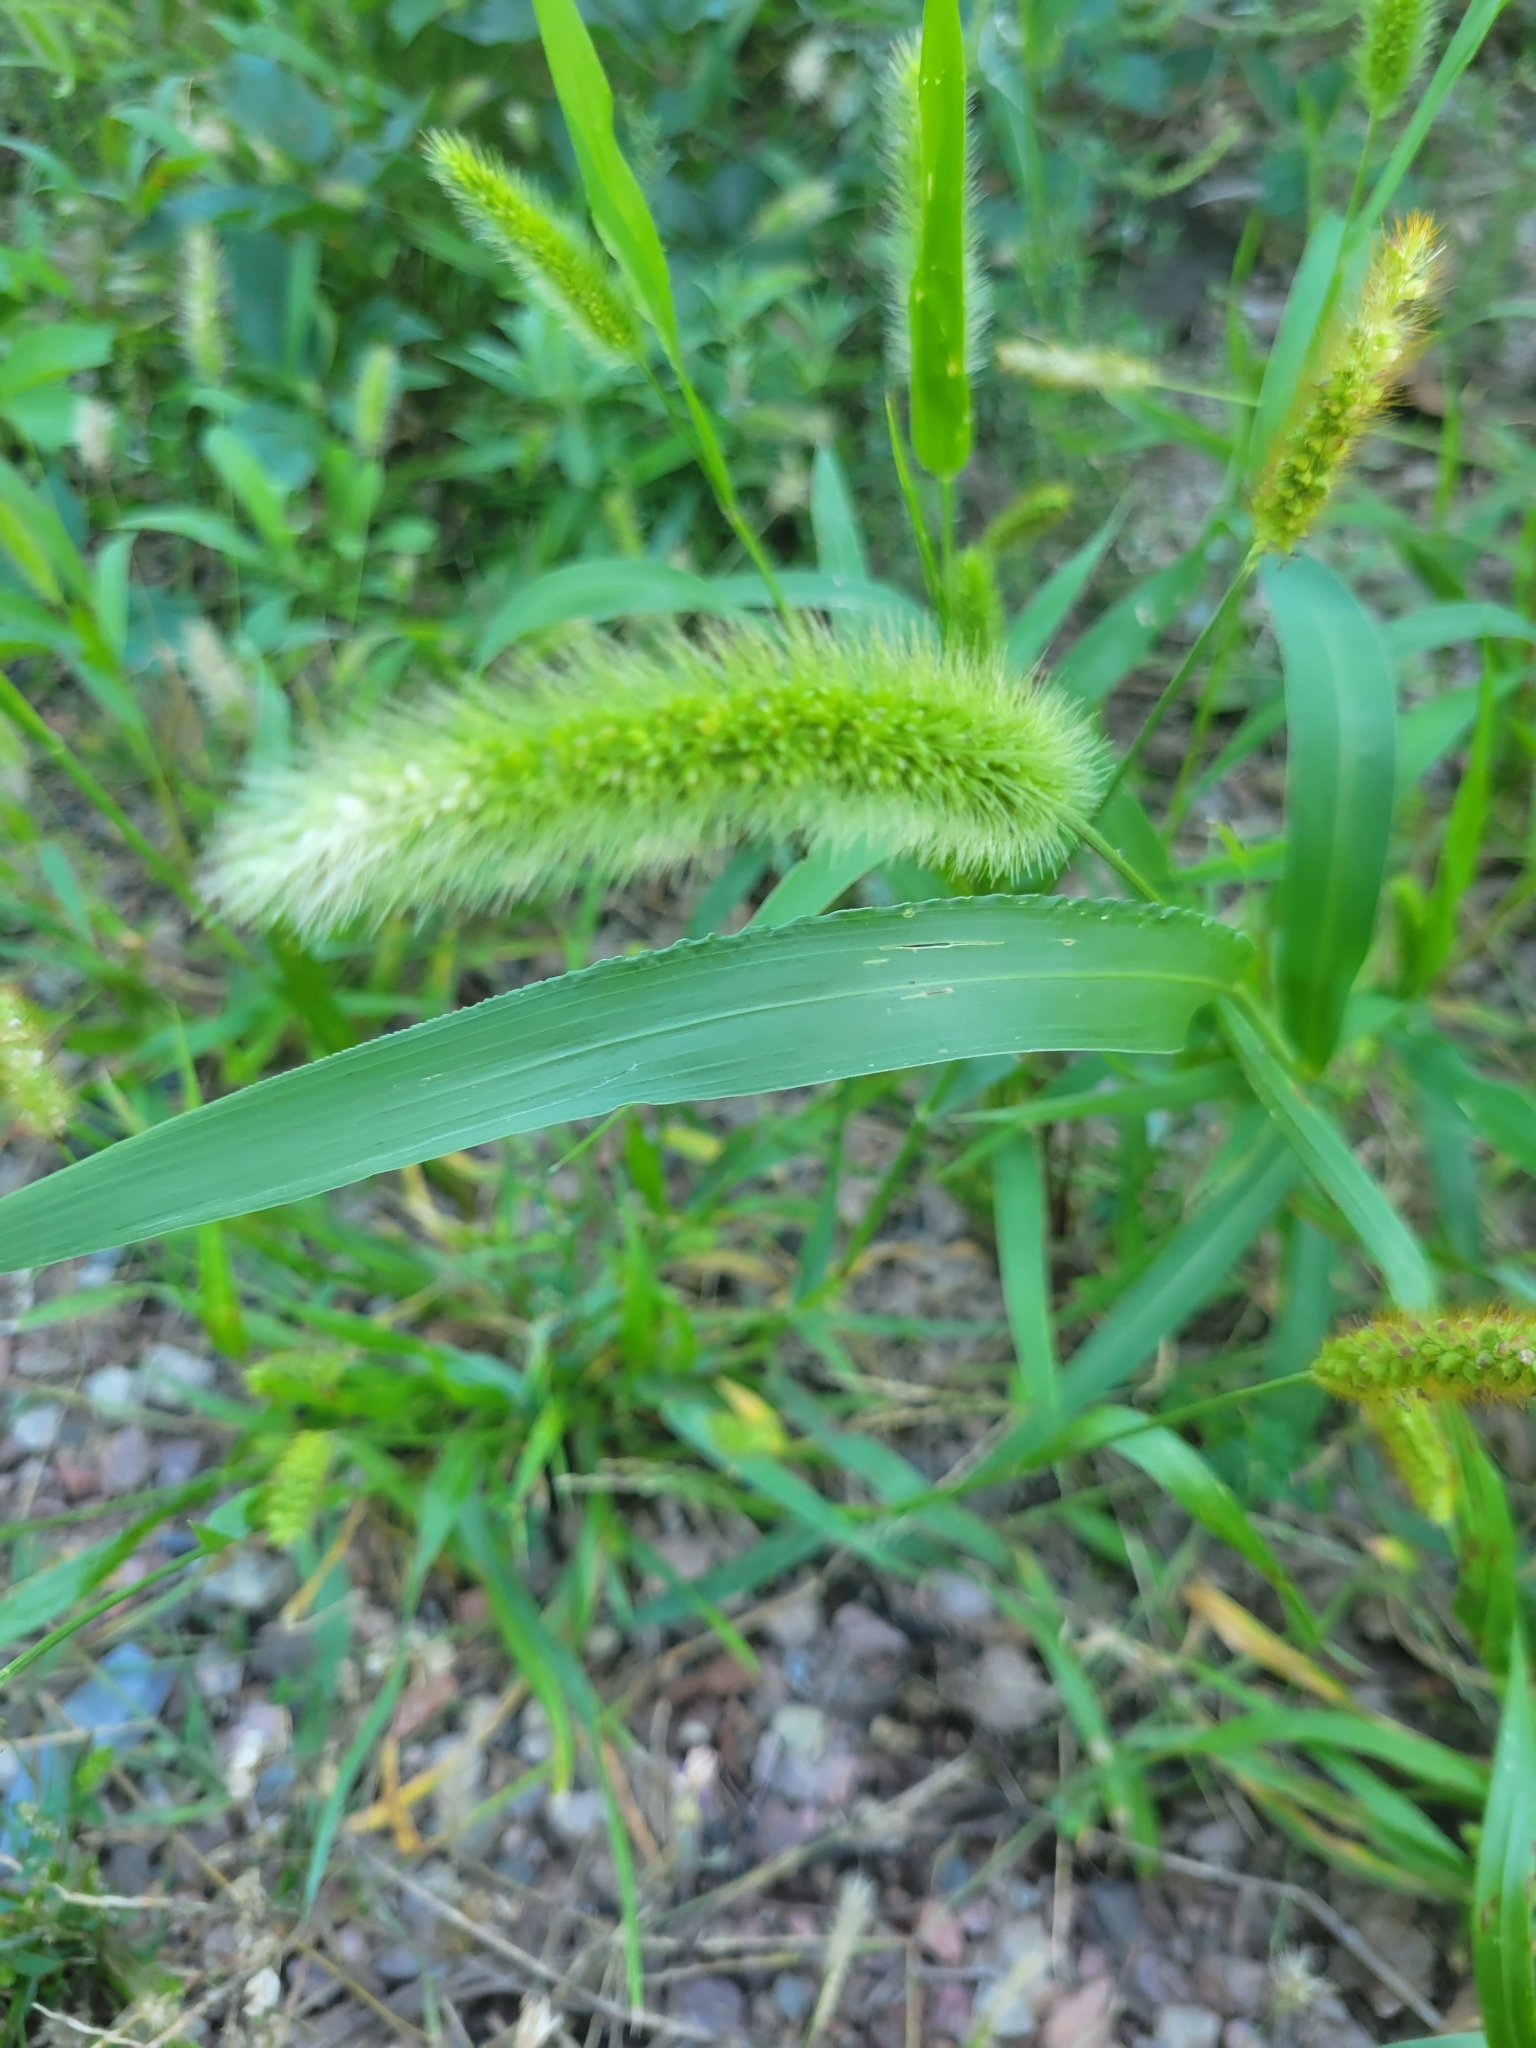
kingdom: Plantae
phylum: Tracheophyta
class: Liliopsida
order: Poales
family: Poaceae
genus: Setaria
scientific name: Setaria viridis
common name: Green bristlegrass
